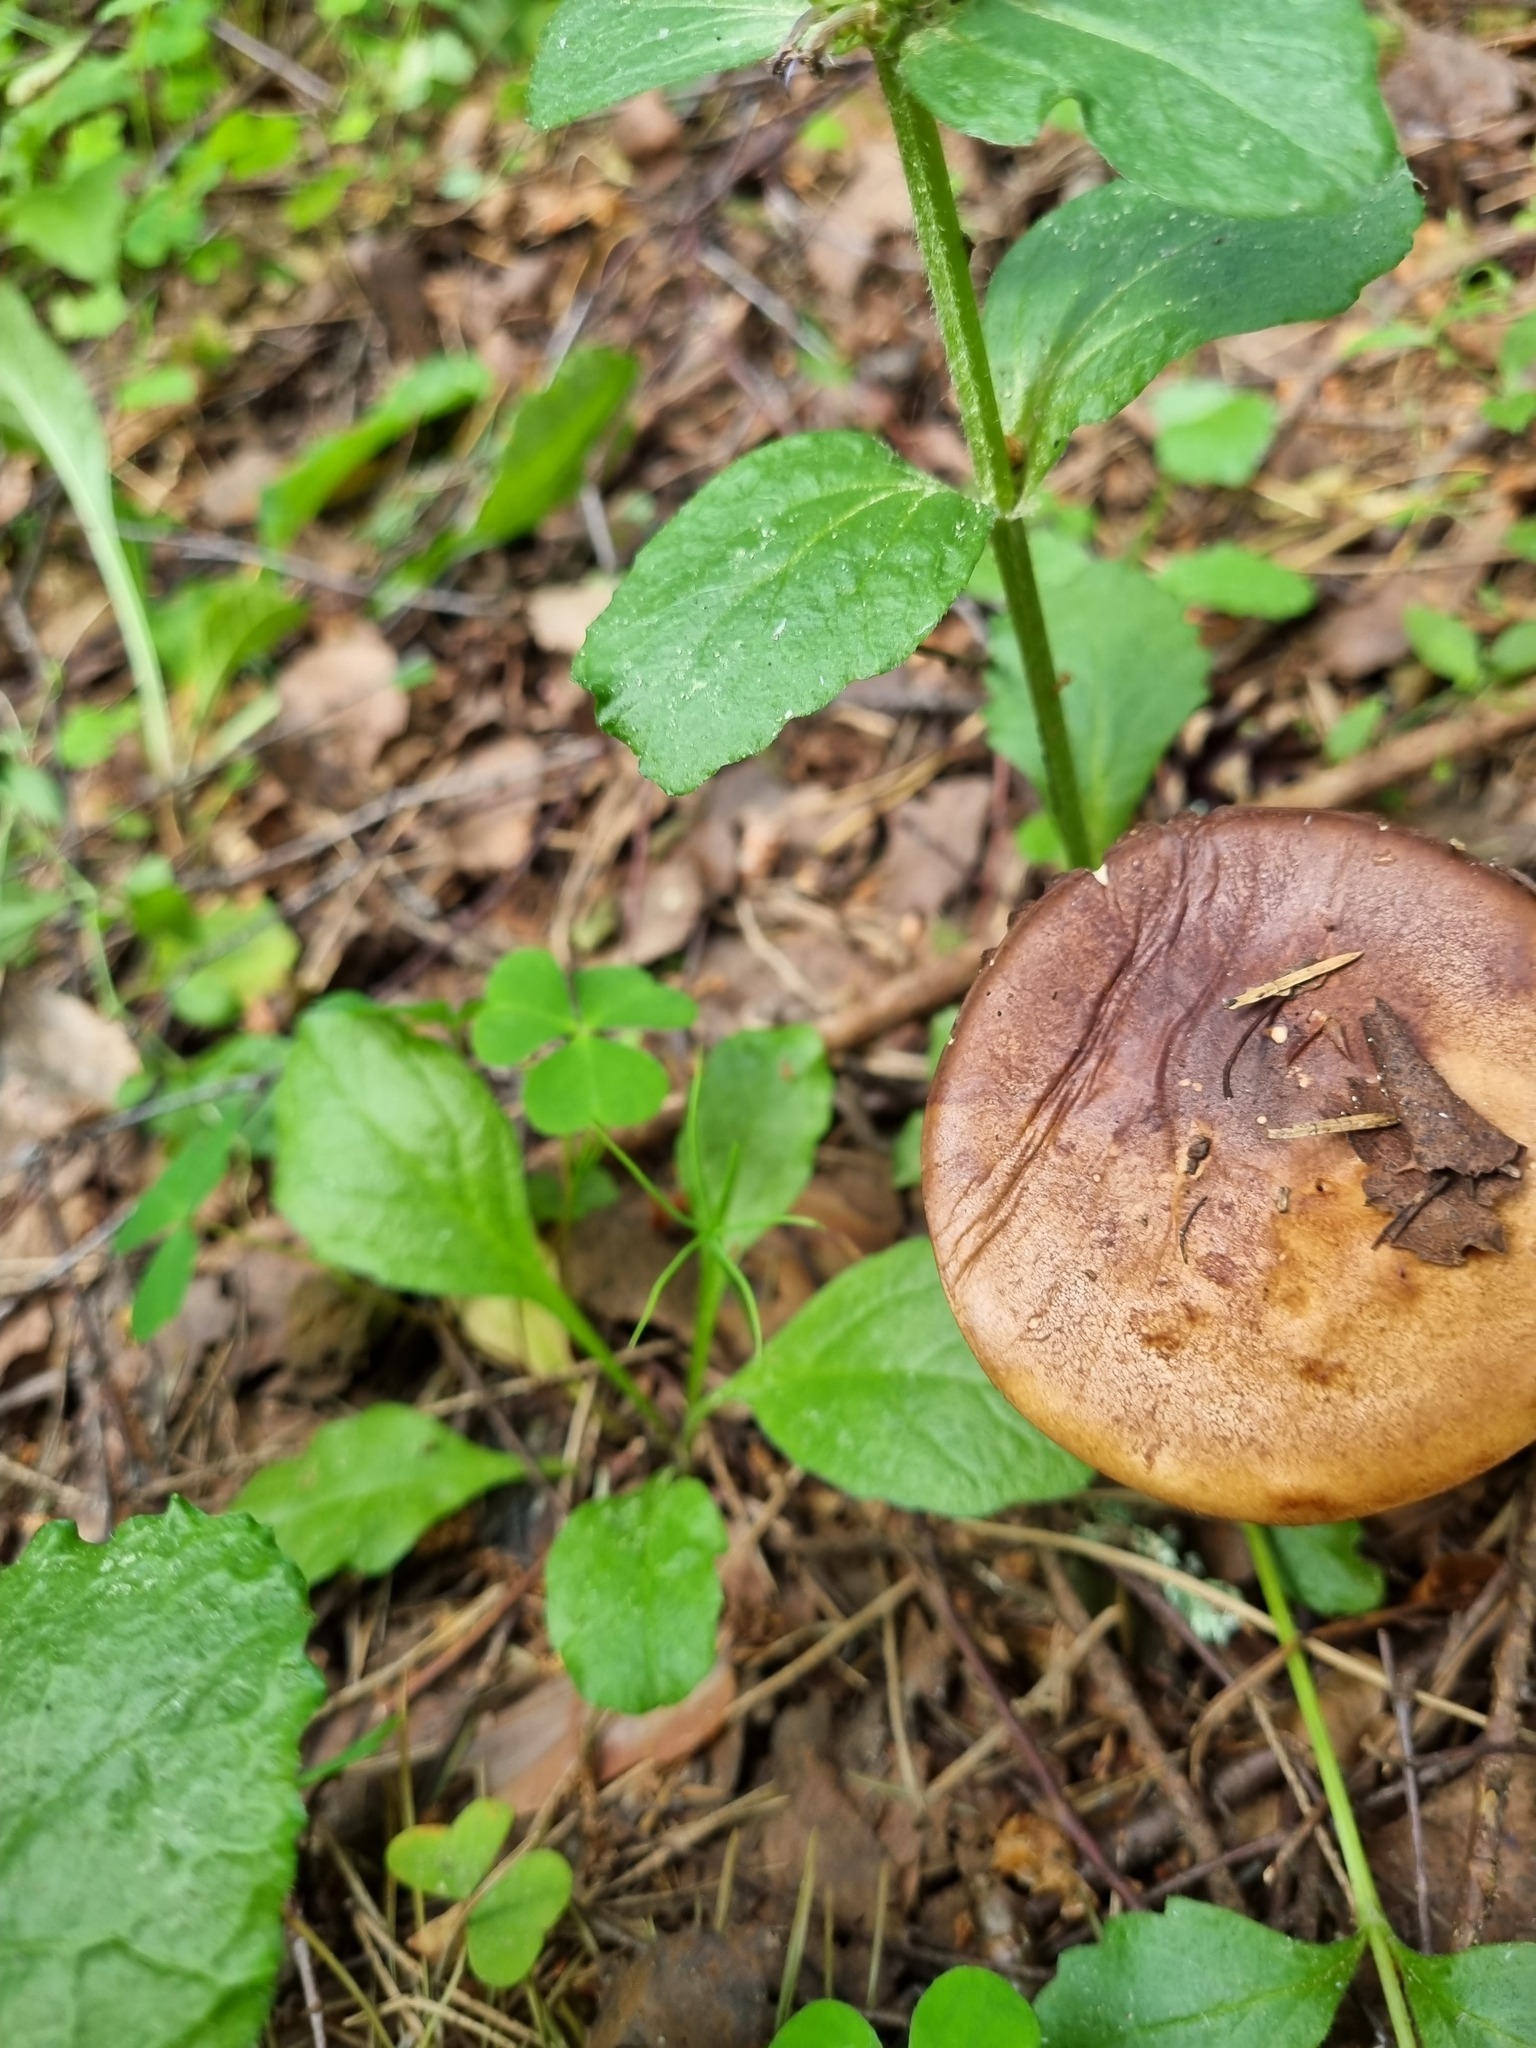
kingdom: Fungi
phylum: Basidiomycota
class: Agaricomycetes
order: Boletales
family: Boletaceae
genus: Leccinum
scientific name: Leccinum scabrum
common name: Blushing bolete
